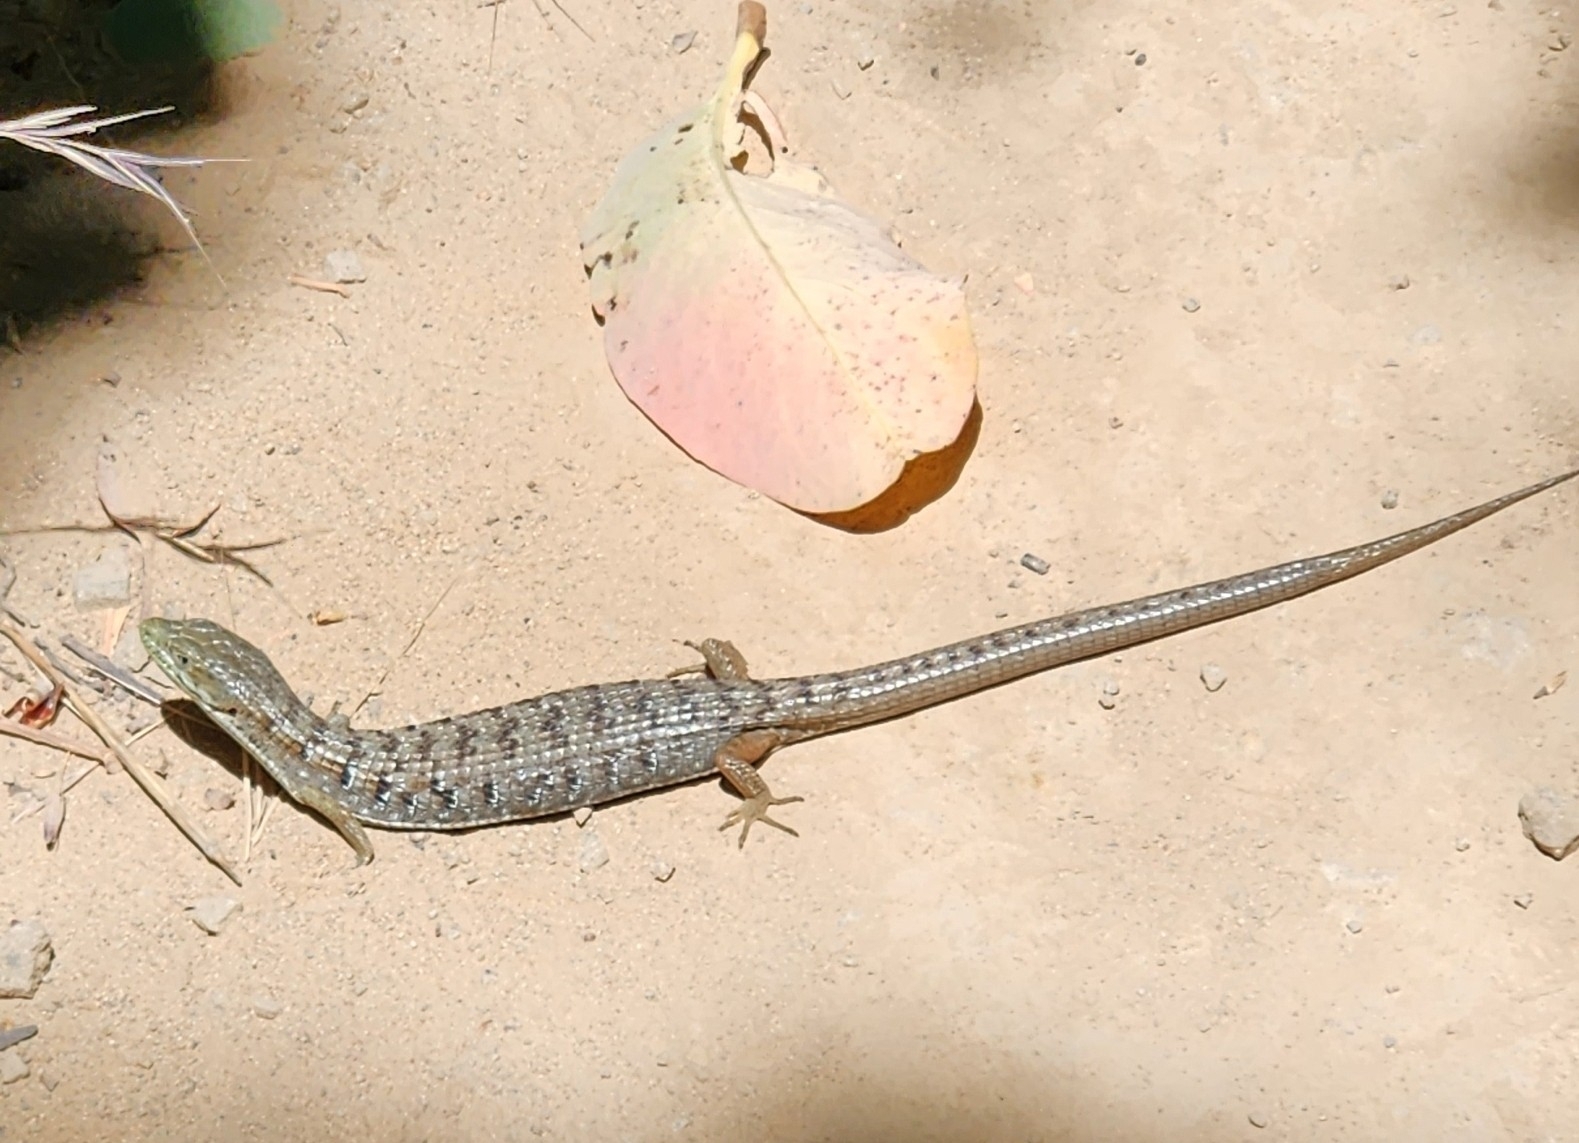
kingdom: Animalia
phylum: Chordata
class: Squamata
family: Anguidae
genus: Elgaria
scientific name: Elgaria multicarinata
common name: Southern alligator lizard
